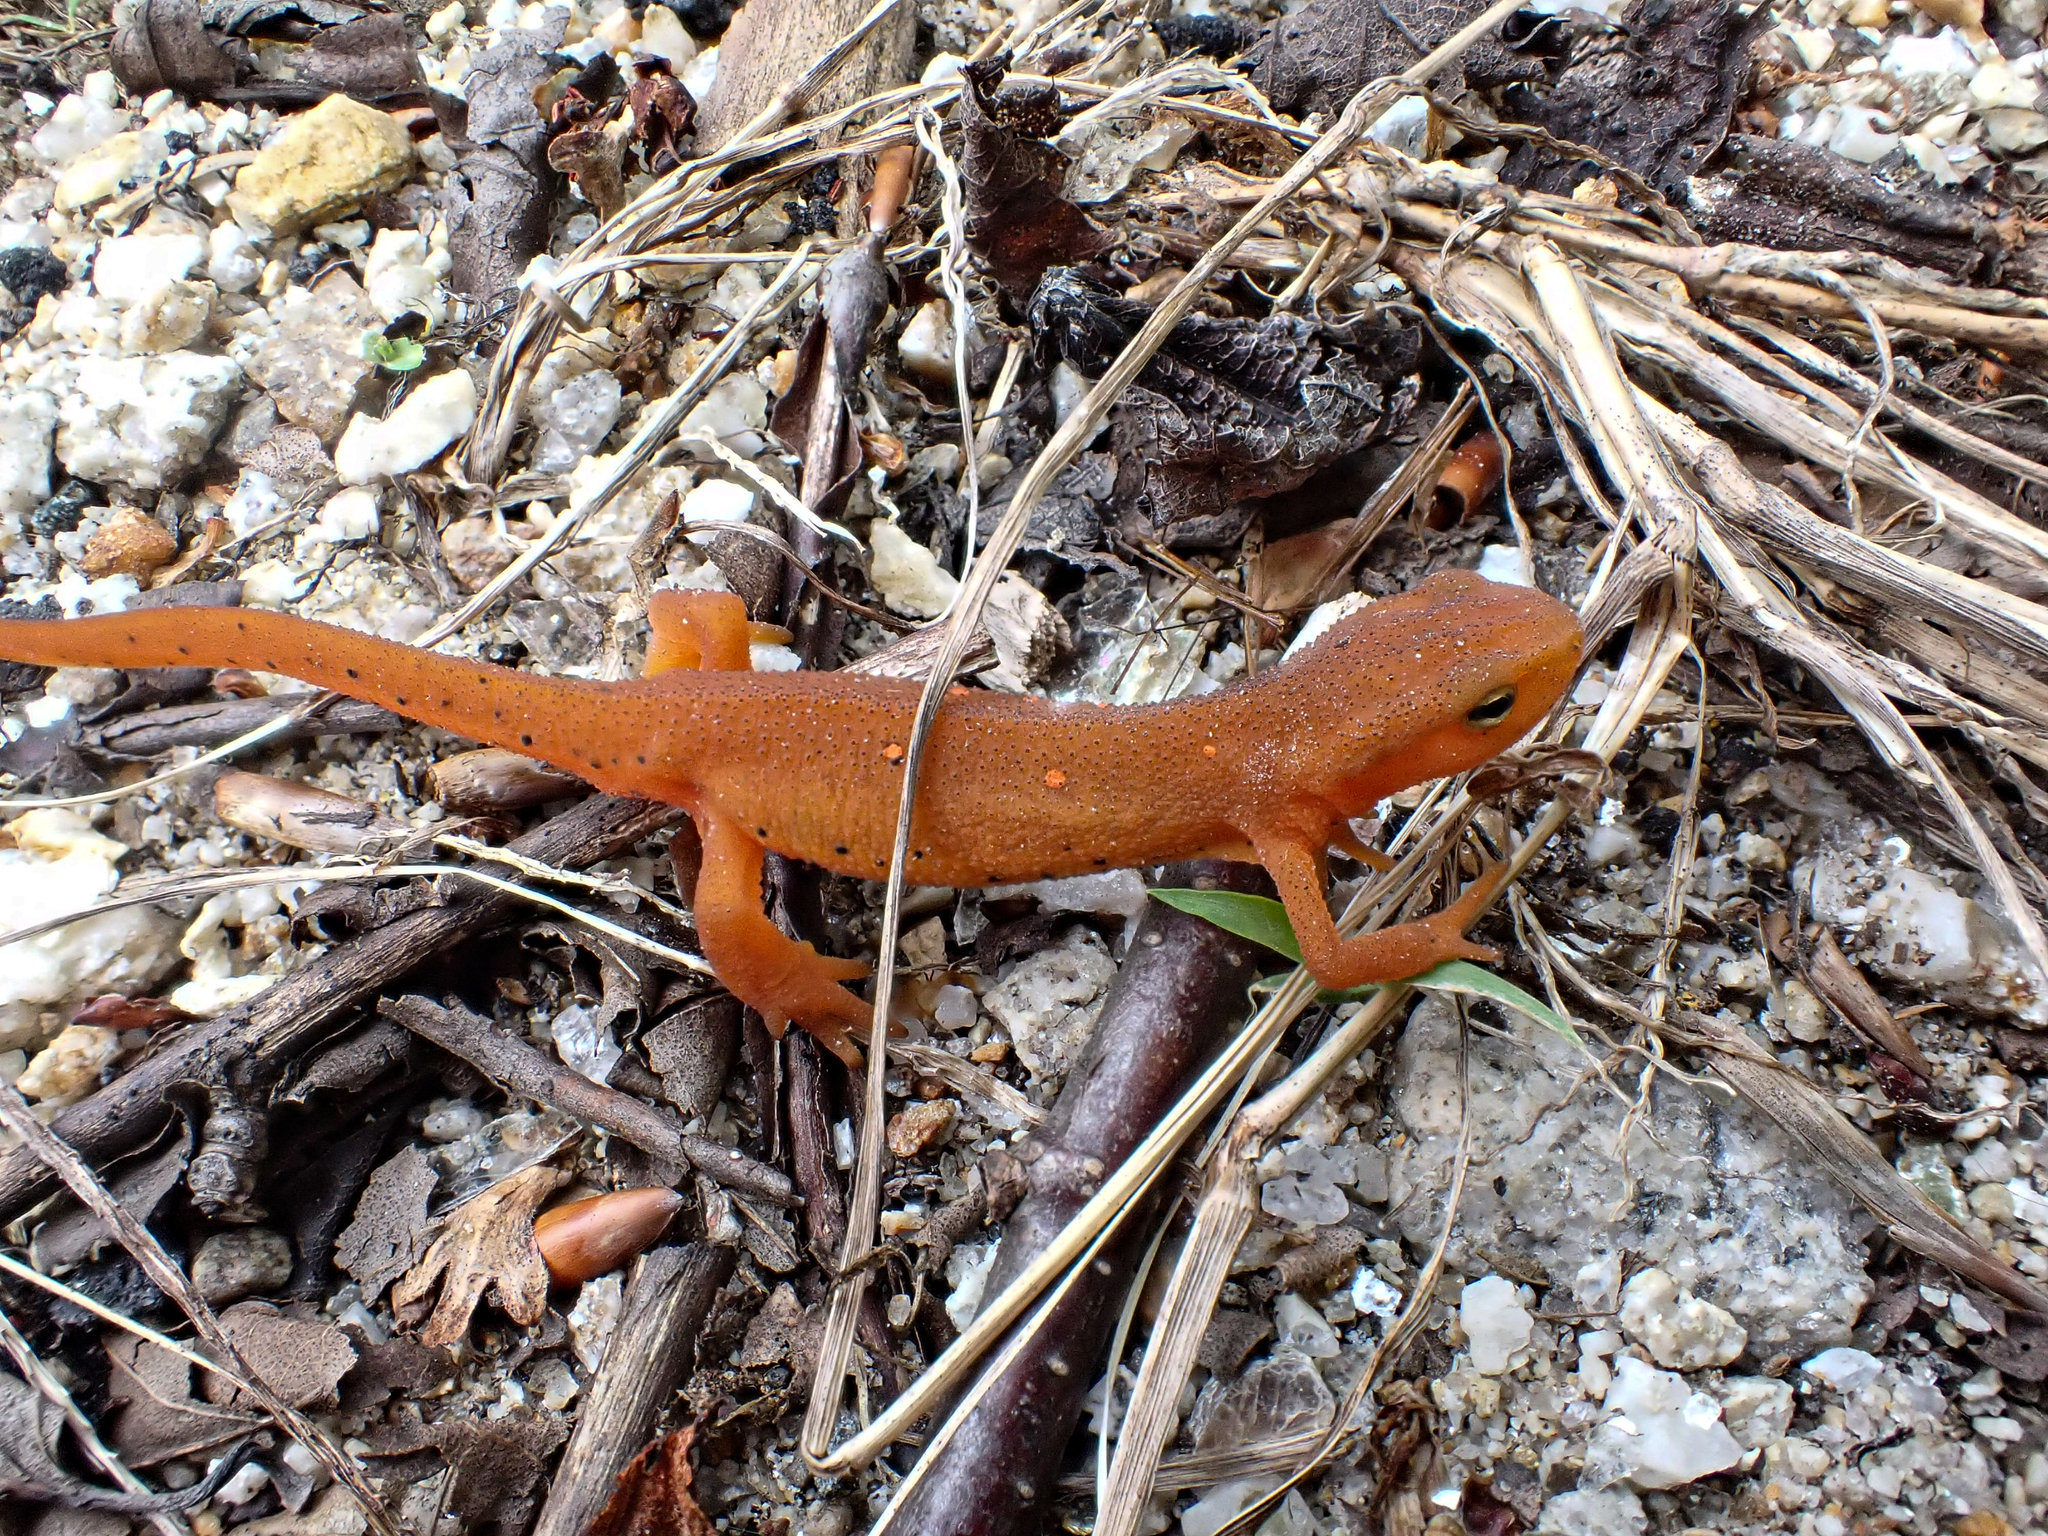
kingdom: Animalia
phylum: Chordata
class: Amphibia
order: Caudata
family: Salamandridae
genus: Notophthalmus
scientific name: Notophthalmus viridescens
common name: Eastern newt
